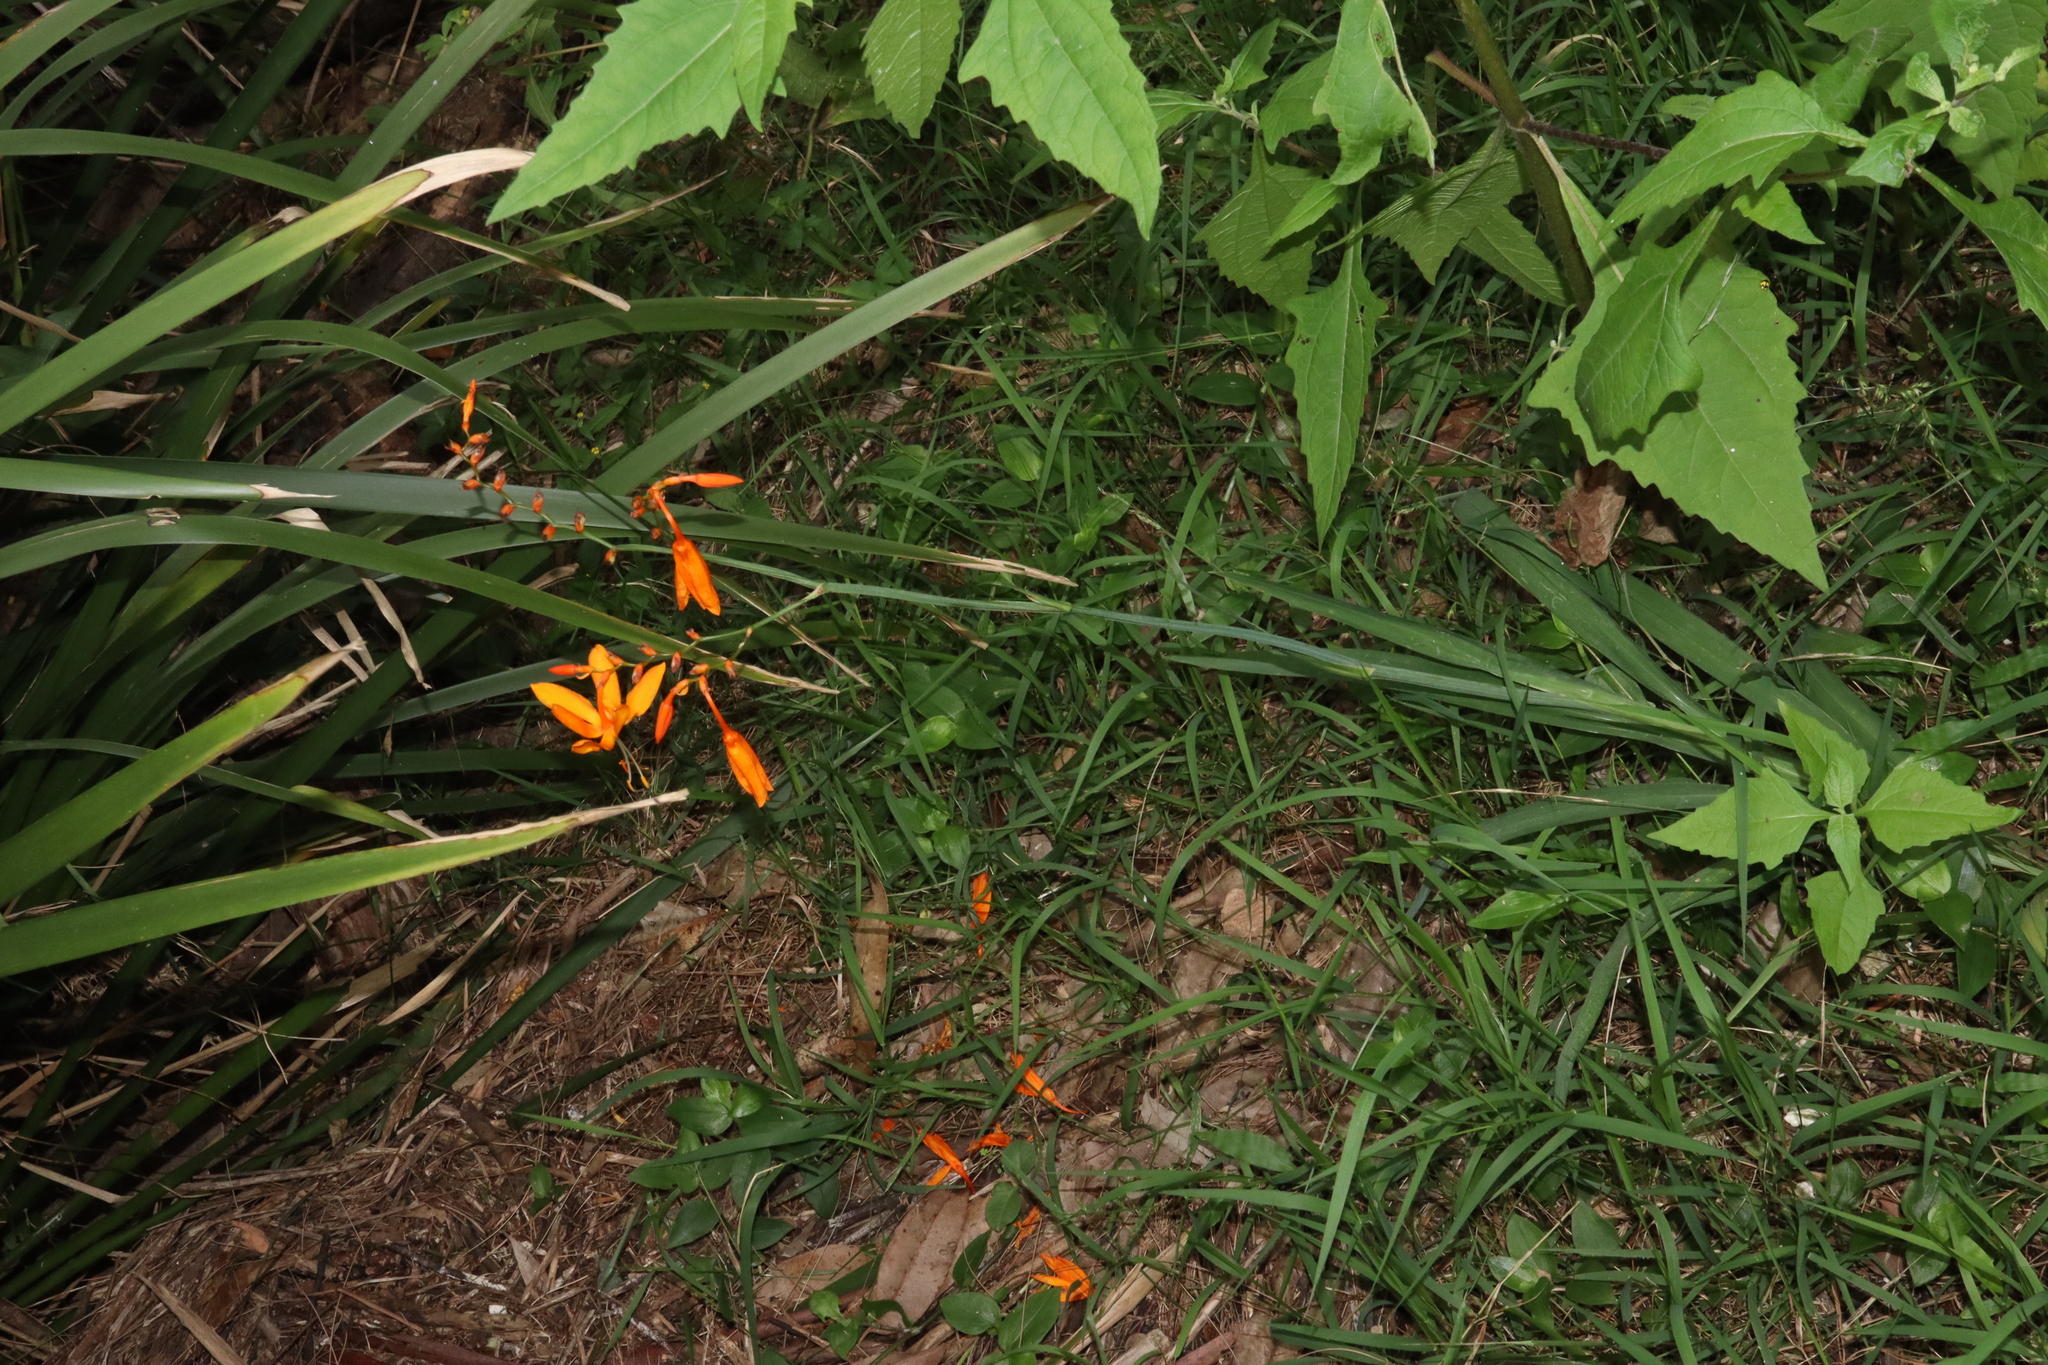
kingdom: Plantae
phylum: Tracheophyta
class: Liliopsida
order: Asparagales
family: Iridaceae
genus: Crocosmia
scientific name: Crocosmia aurea
